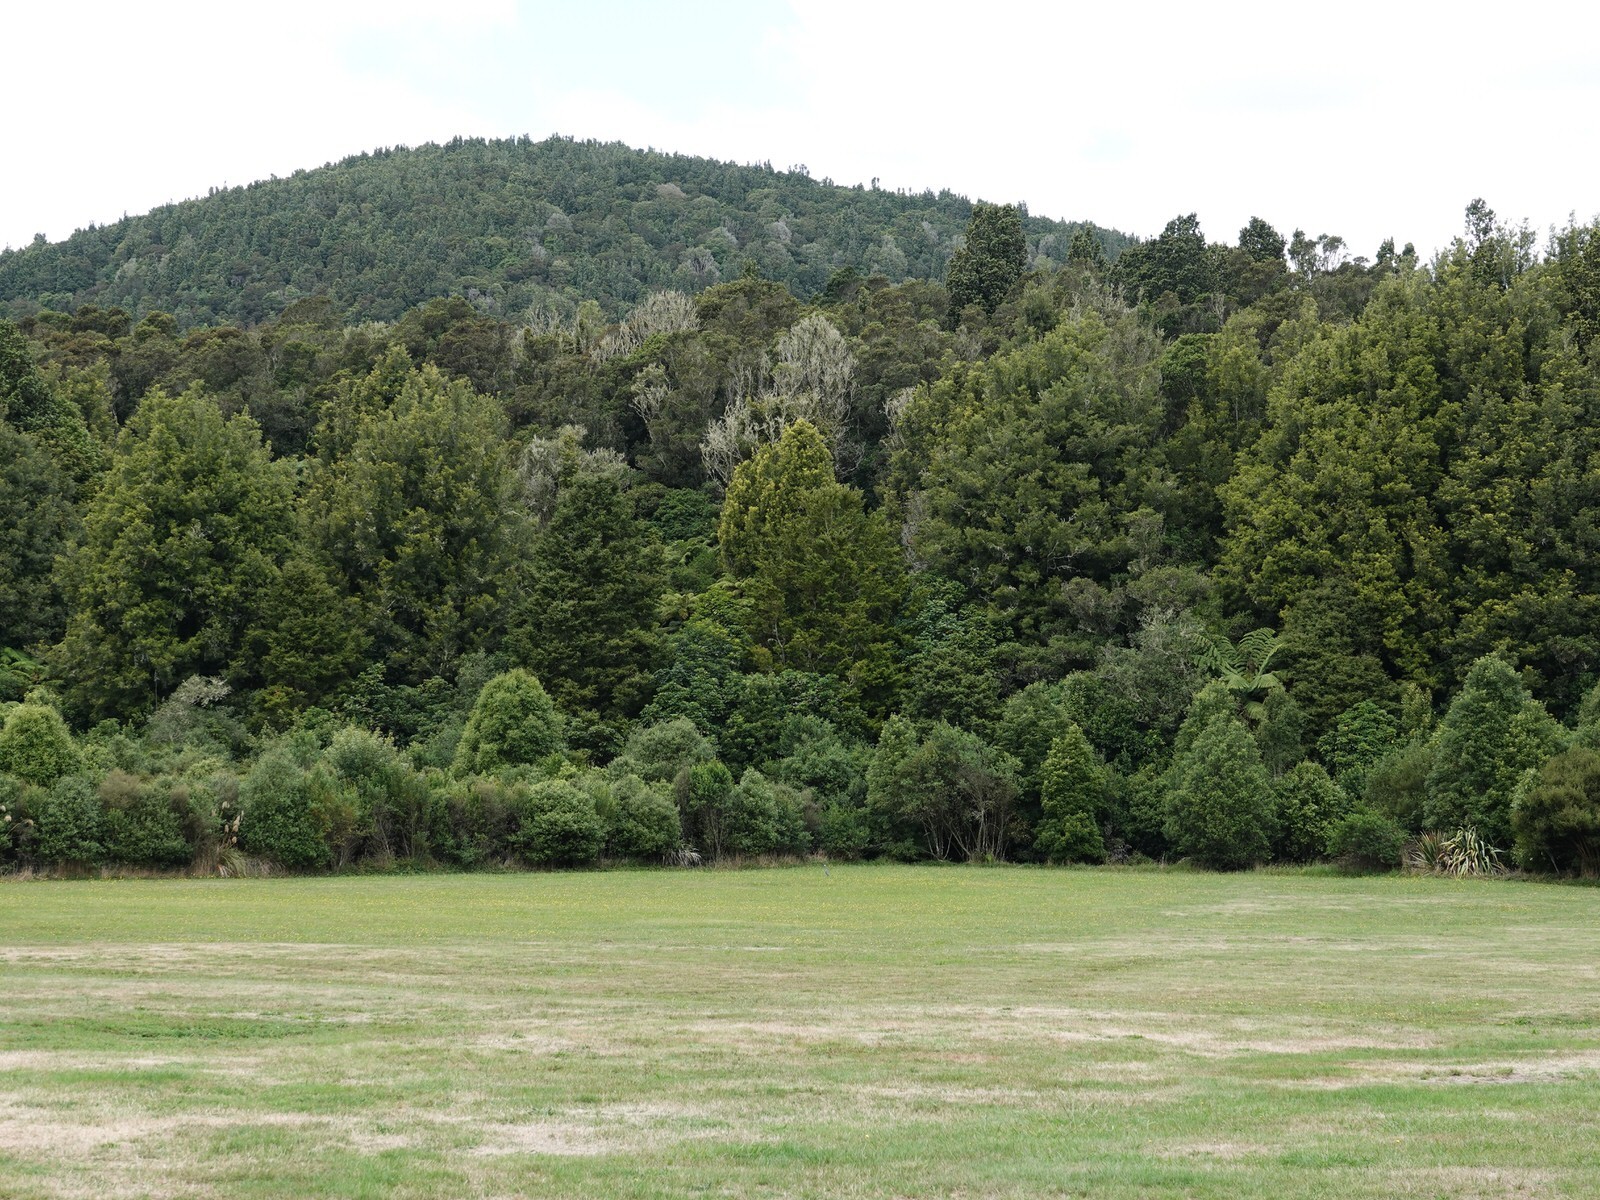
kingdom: Animalia
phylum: Chordata
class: Aves
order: Pelecaniformes
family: Ardeidae
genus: Egretta
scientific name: Egretta novaehollandiae
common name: White-faced heron
